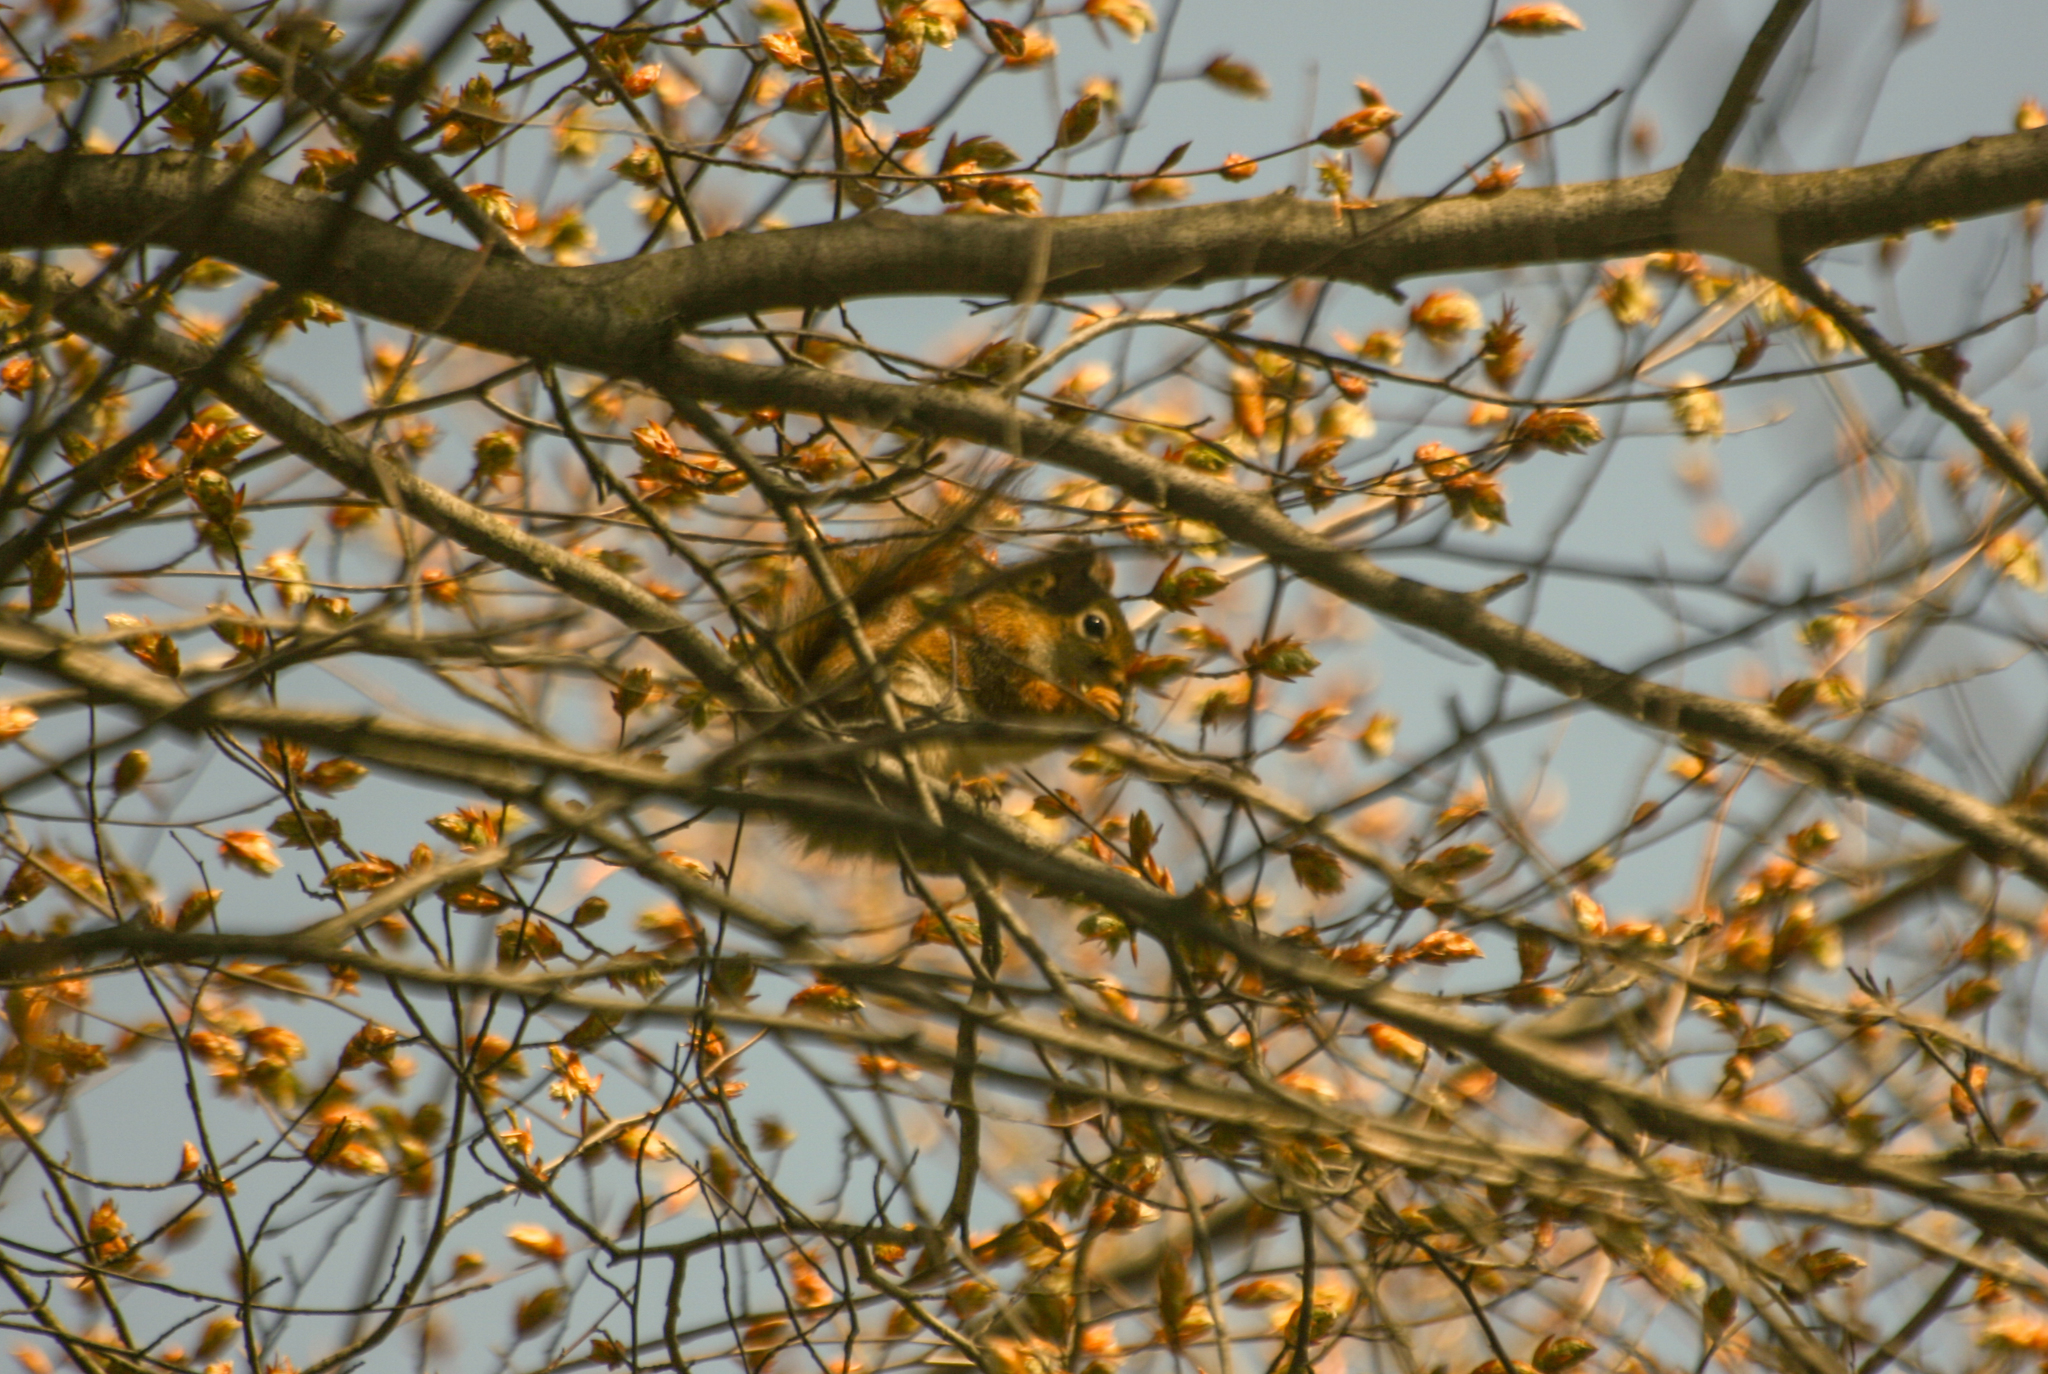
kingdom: Animalia
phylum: Chordata
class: Mammalia
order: Rodentia
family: Sciuridae
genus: Tamiasciurus
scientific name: Tamiasciurus hudsonicus
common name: Red squirrel
